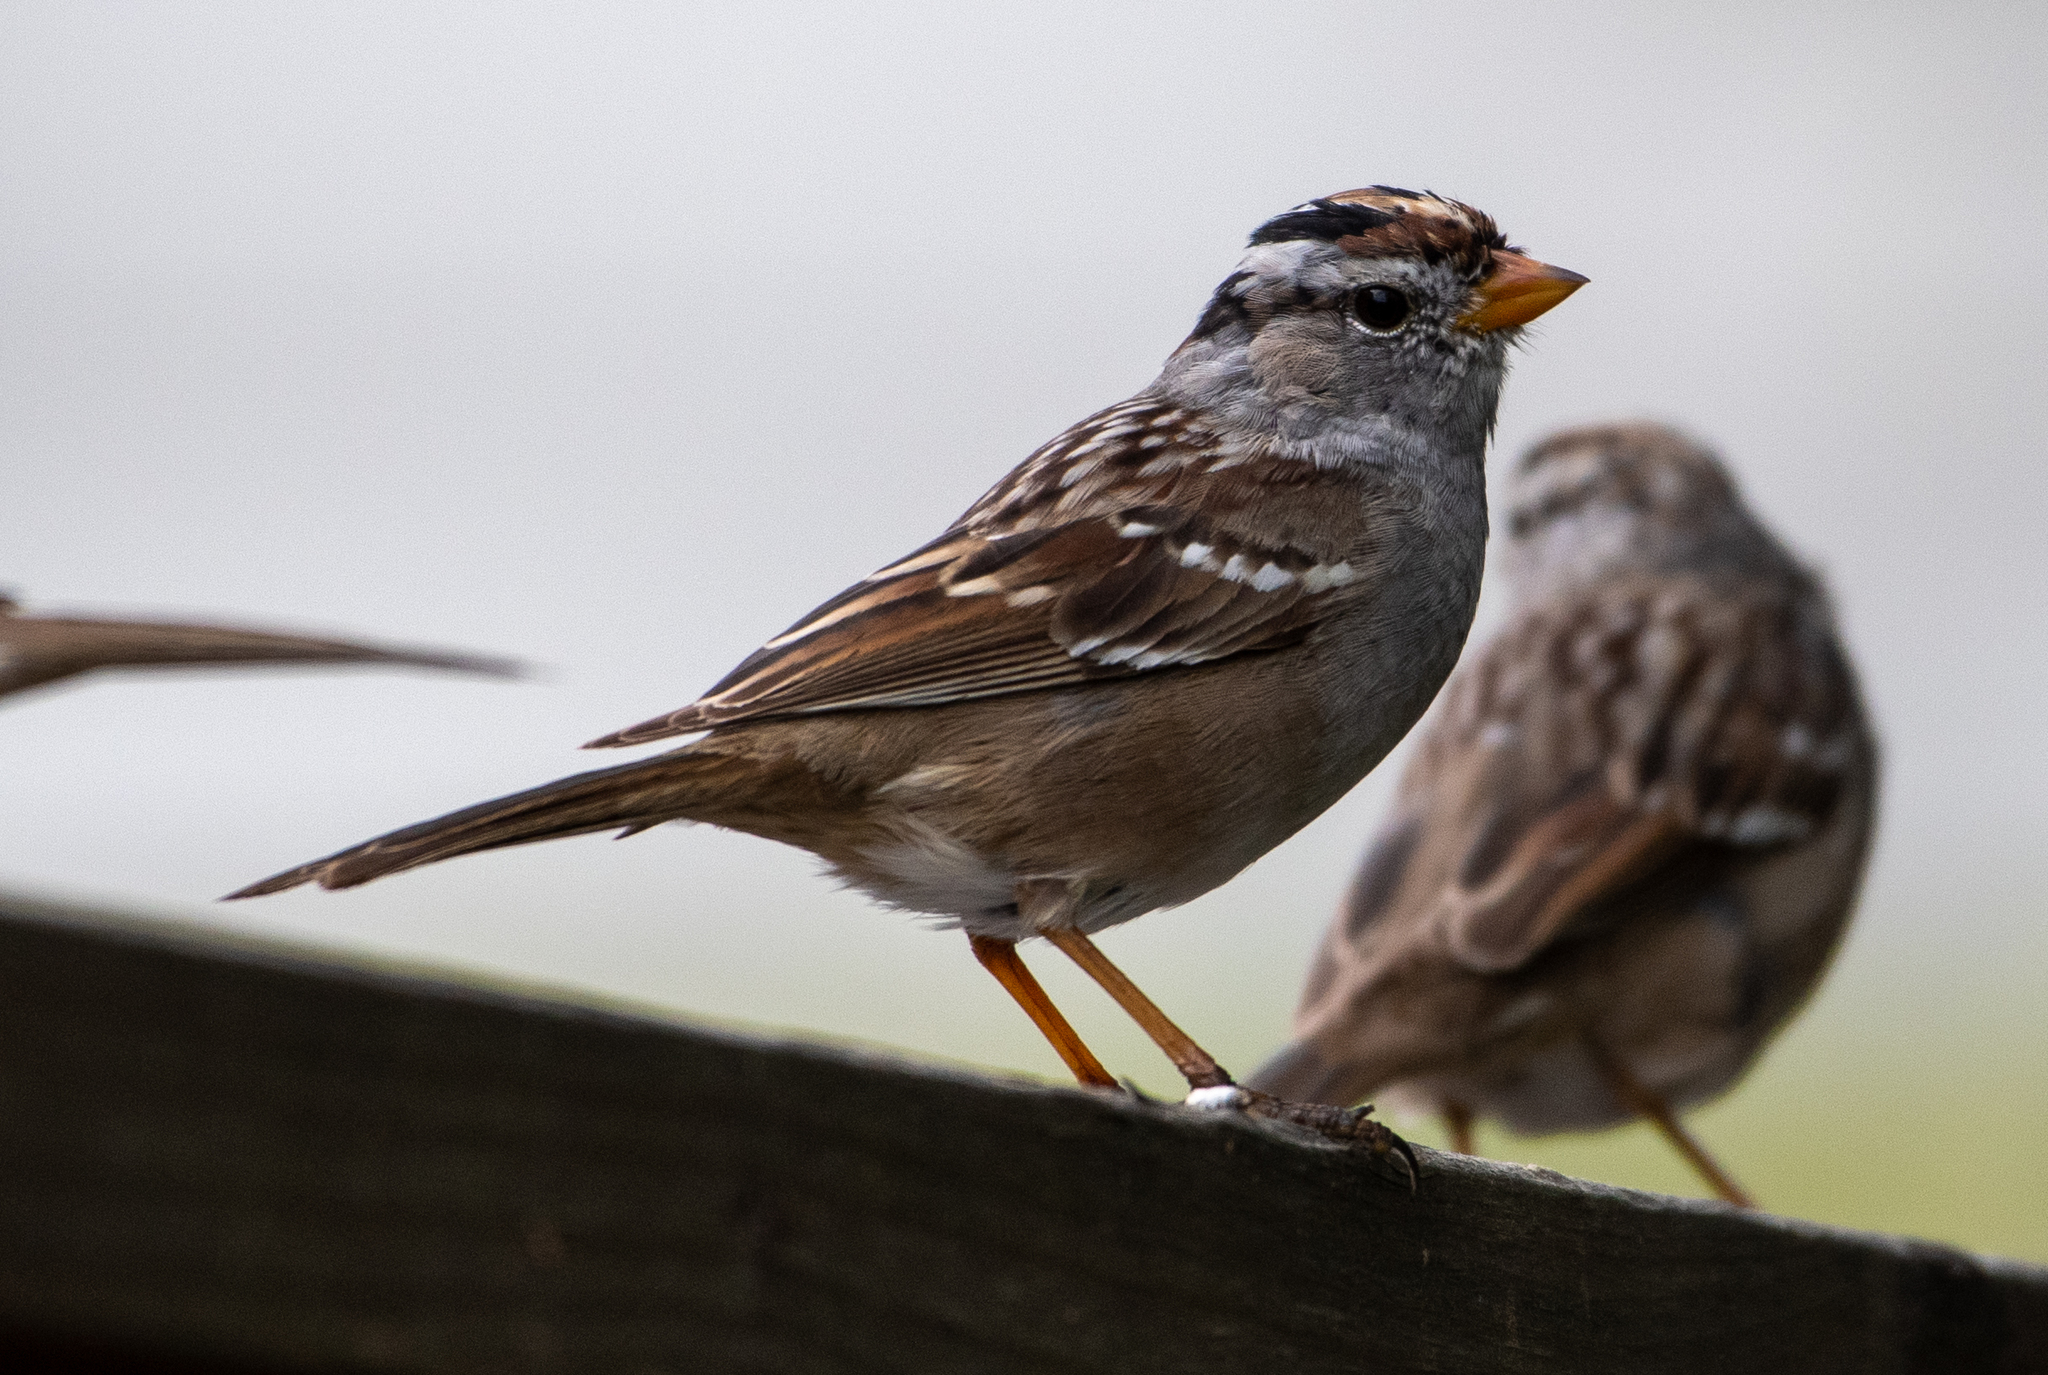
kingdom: Animalia
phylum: Chordata
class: Aves
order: Passeriformes
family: Passerellidae
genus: Zonotrichia
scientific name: Zonotrichia leucophrys
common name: White-crowned sparrow
